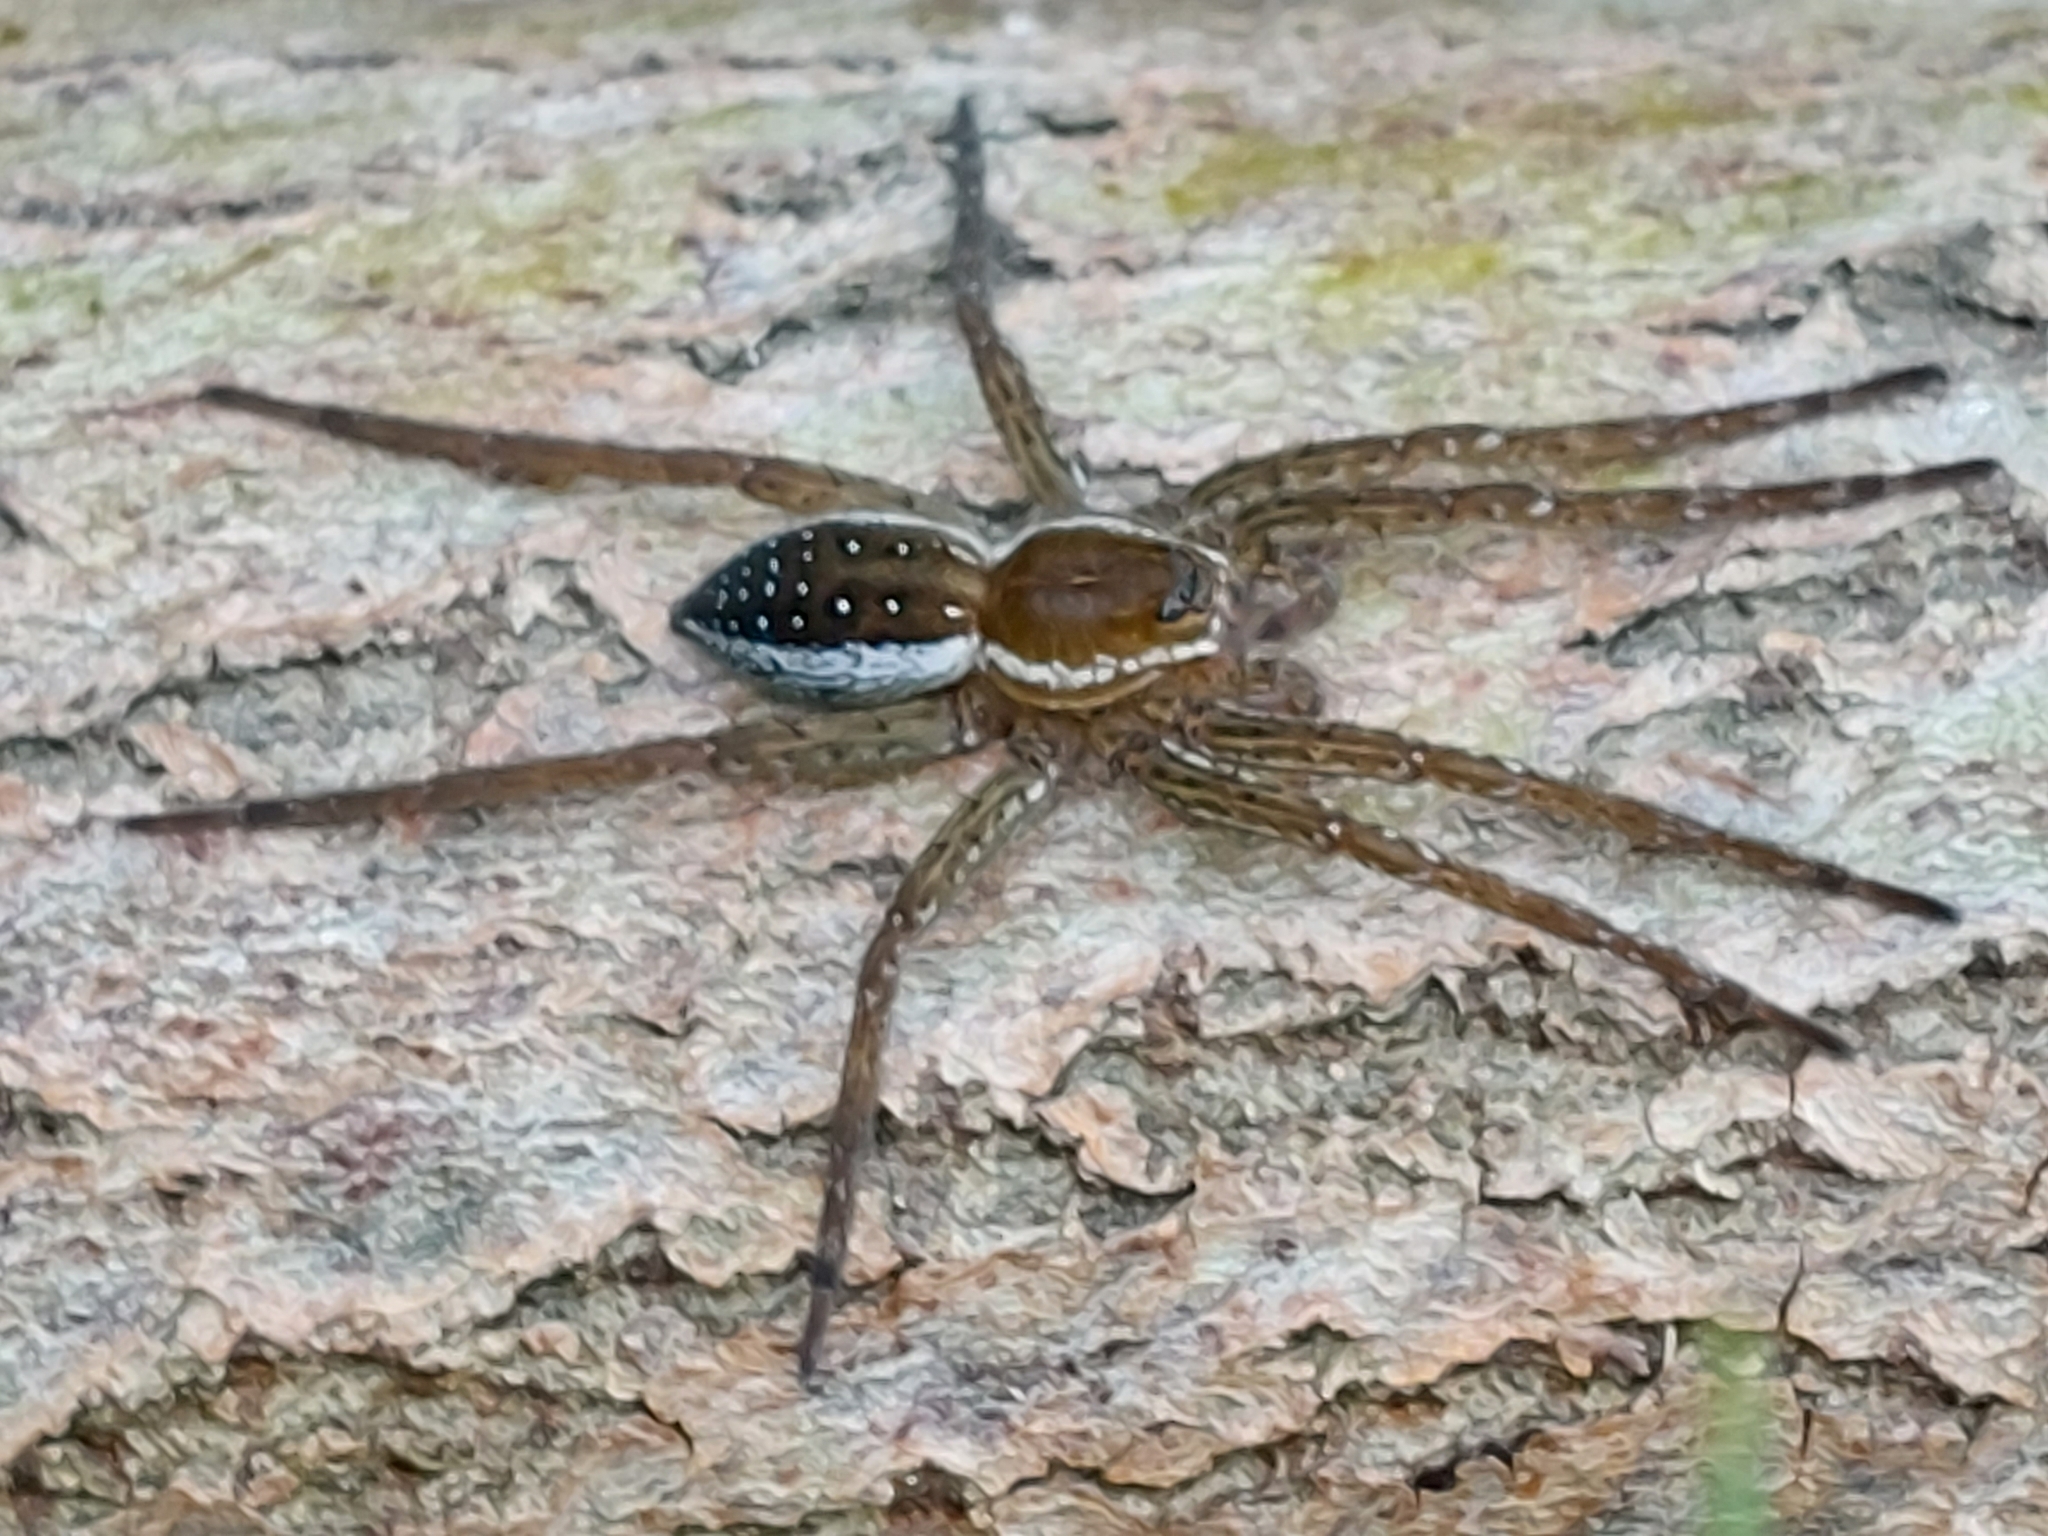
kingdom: Animalia
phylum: Arthropoda
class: Arachnida
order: Araneae
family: Pisauridae
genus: Dolomedes
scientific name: Dolomedes
